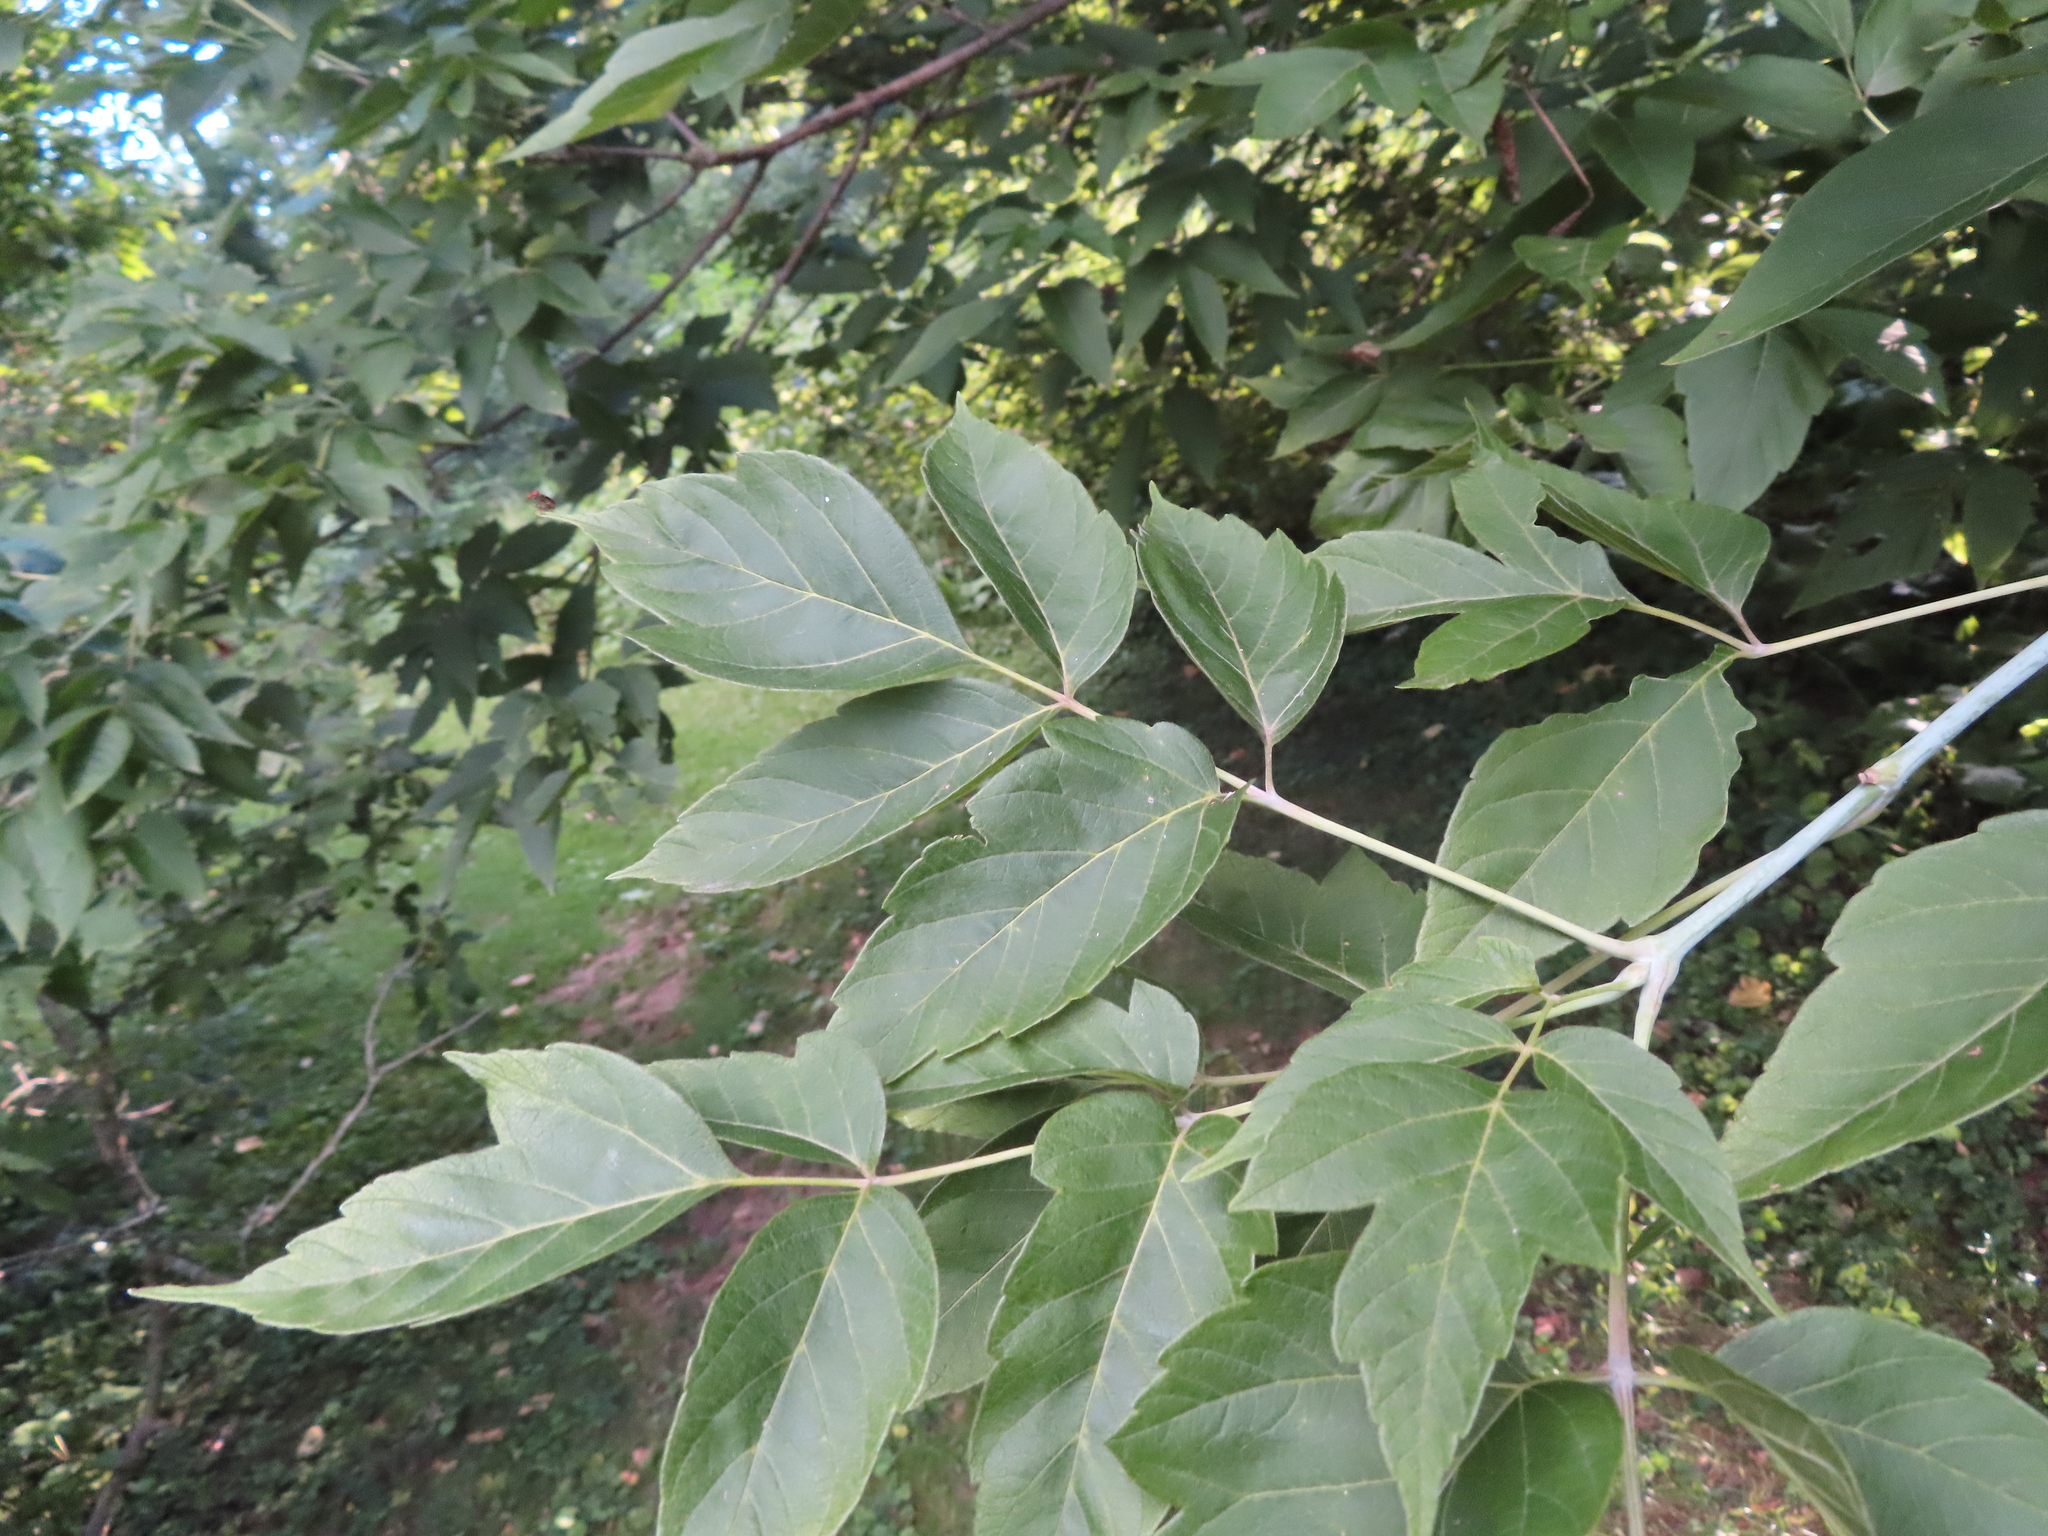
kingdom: Plantae
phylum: Tracheophyta
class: Magnoliopsida
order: Sapindales
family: Sapindaceae
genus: Acer
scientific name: Acer negundo
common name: Ashleaf maple
